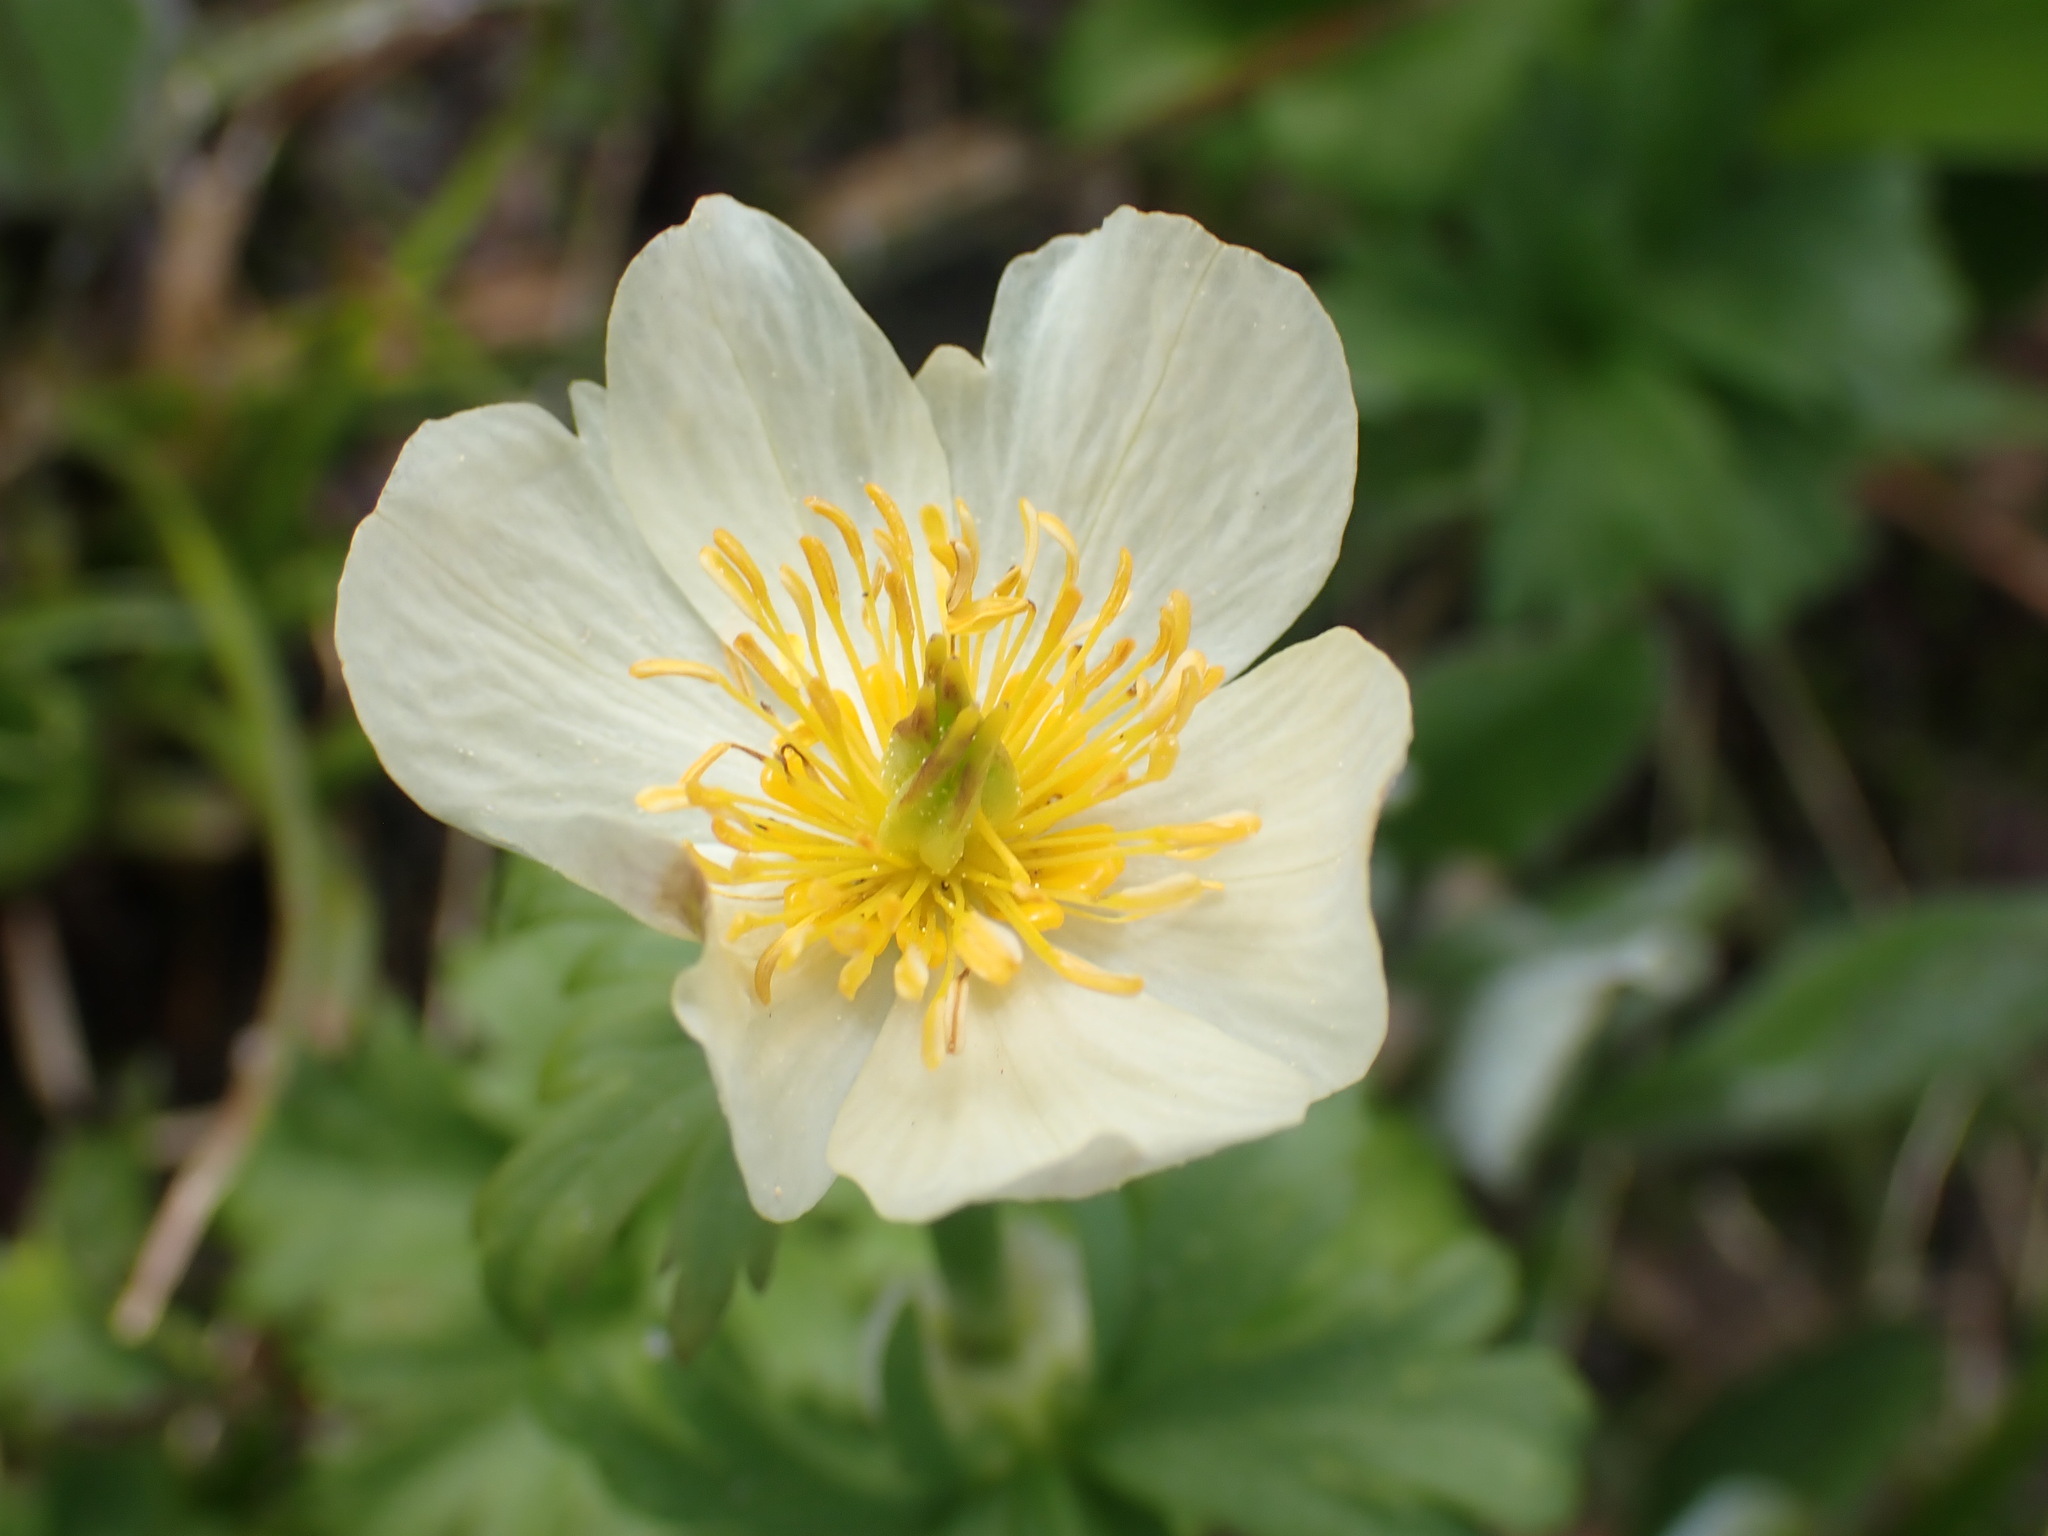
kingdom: Plantae
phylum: Tracheophyta
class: Magnoliopsida
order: Ranunculales
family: Ranunculaceae
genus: Trollius
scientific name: Trollius laxus
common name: American globeflower
